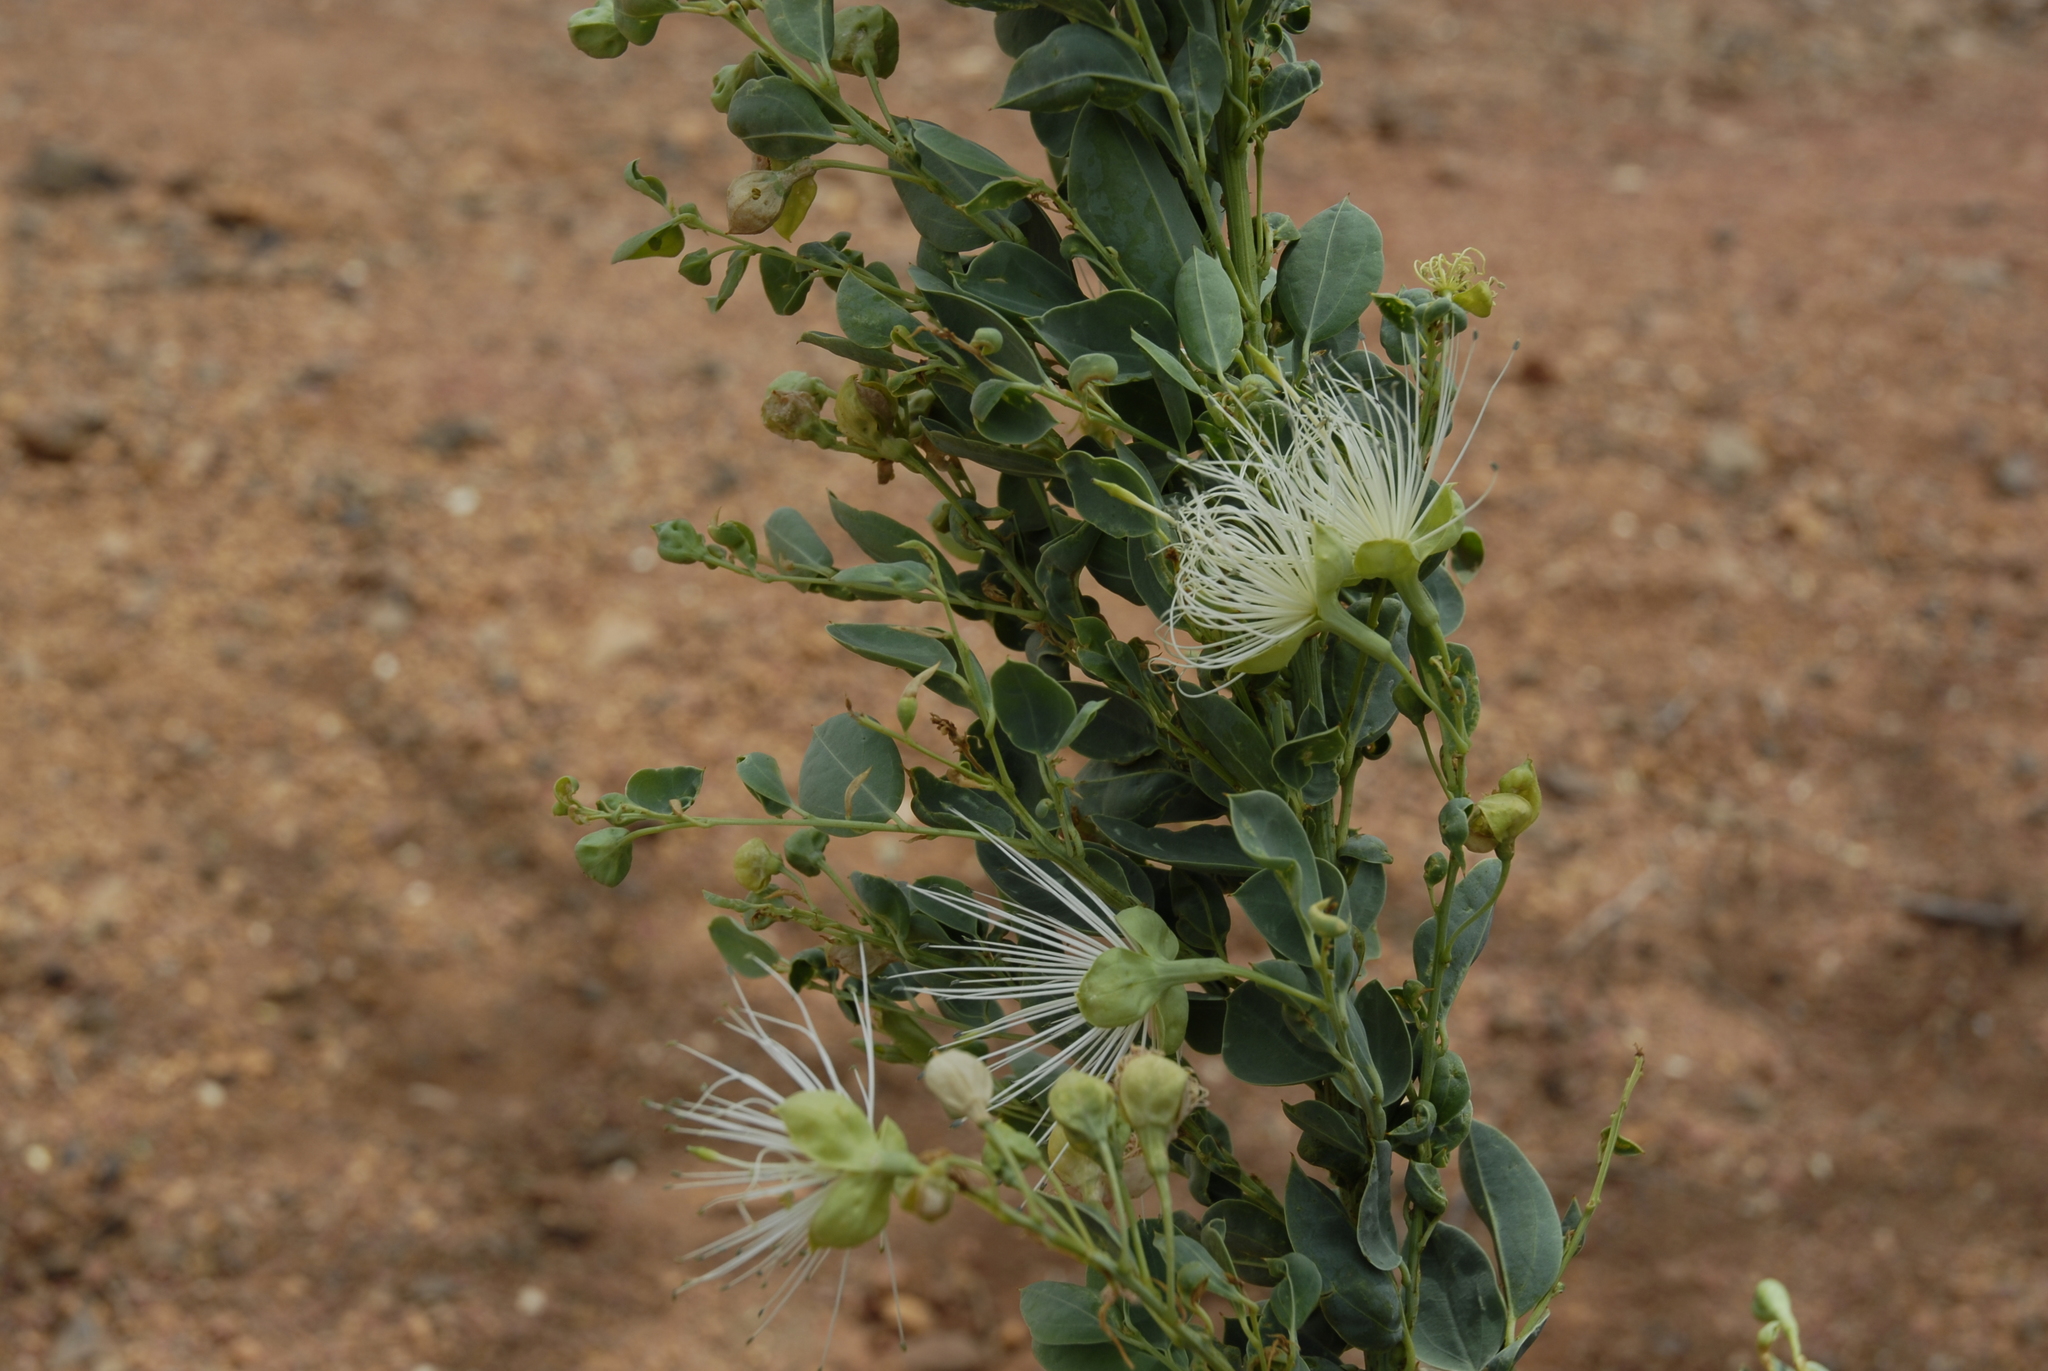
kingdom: Plantae
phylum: Tracheophyta
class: Magnoliopsida
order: Brassicales
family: Capparaceae
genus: Maerua
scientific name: Maerua subcordata
